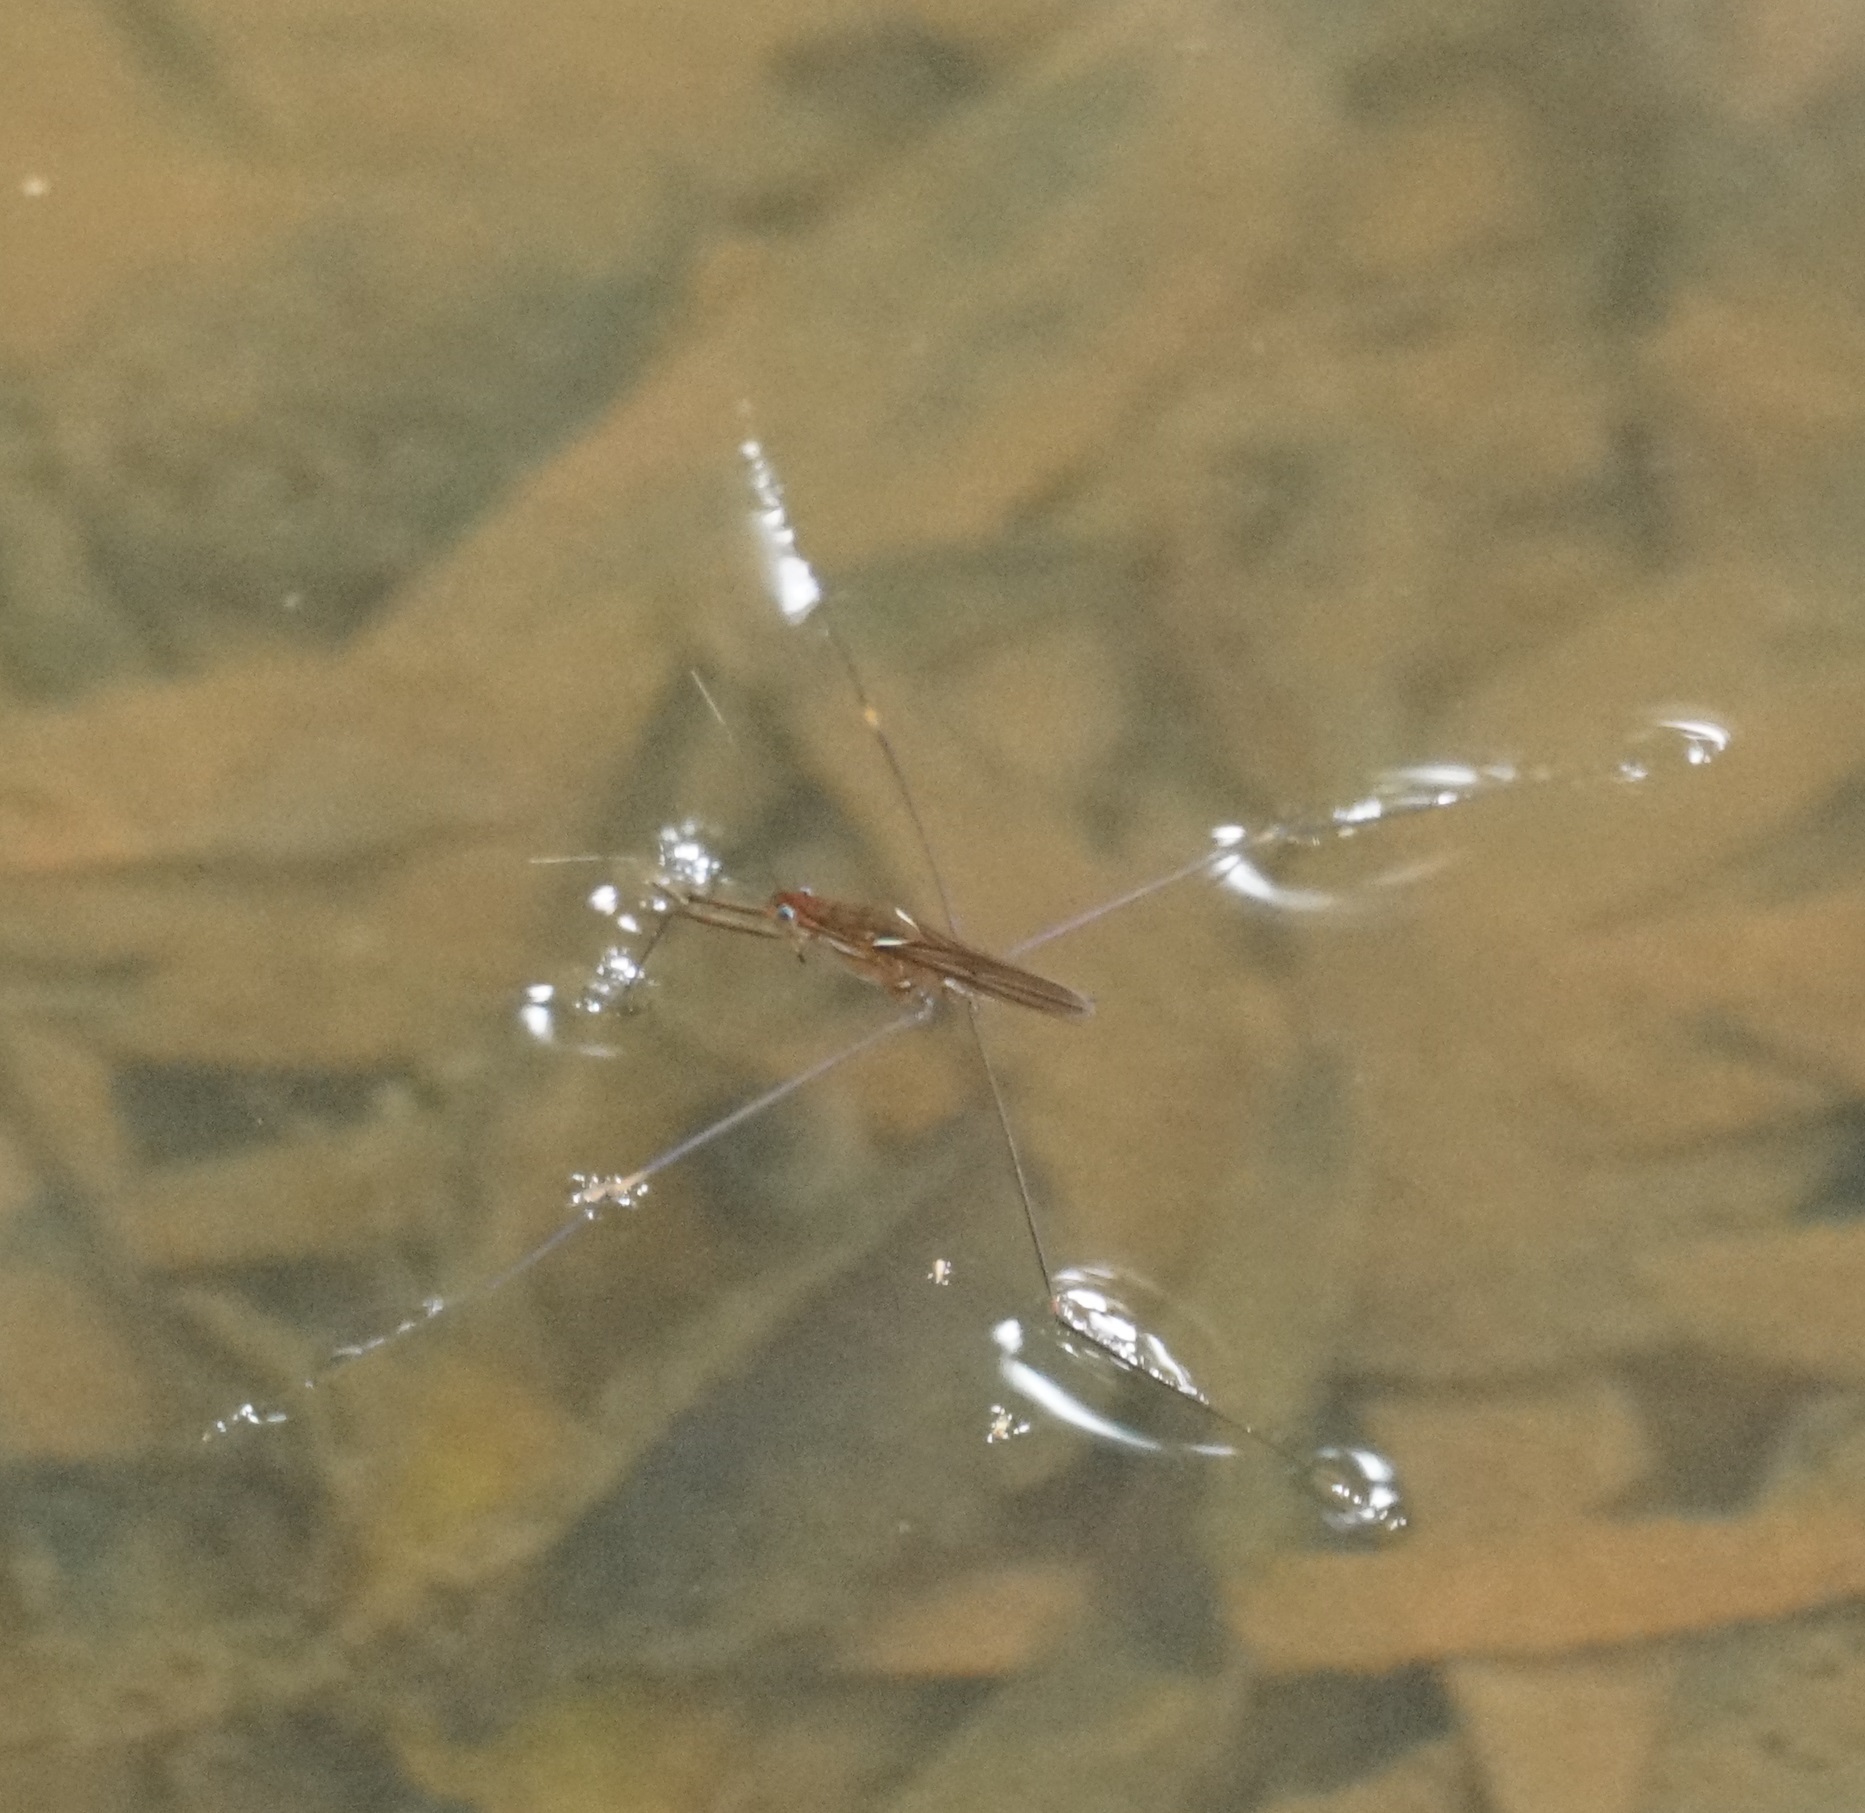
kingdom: Animalia
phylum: Arthropoda
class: Insecta
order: Hemiptera
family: Gerridae
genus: Limnometra
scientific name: Limnometra
